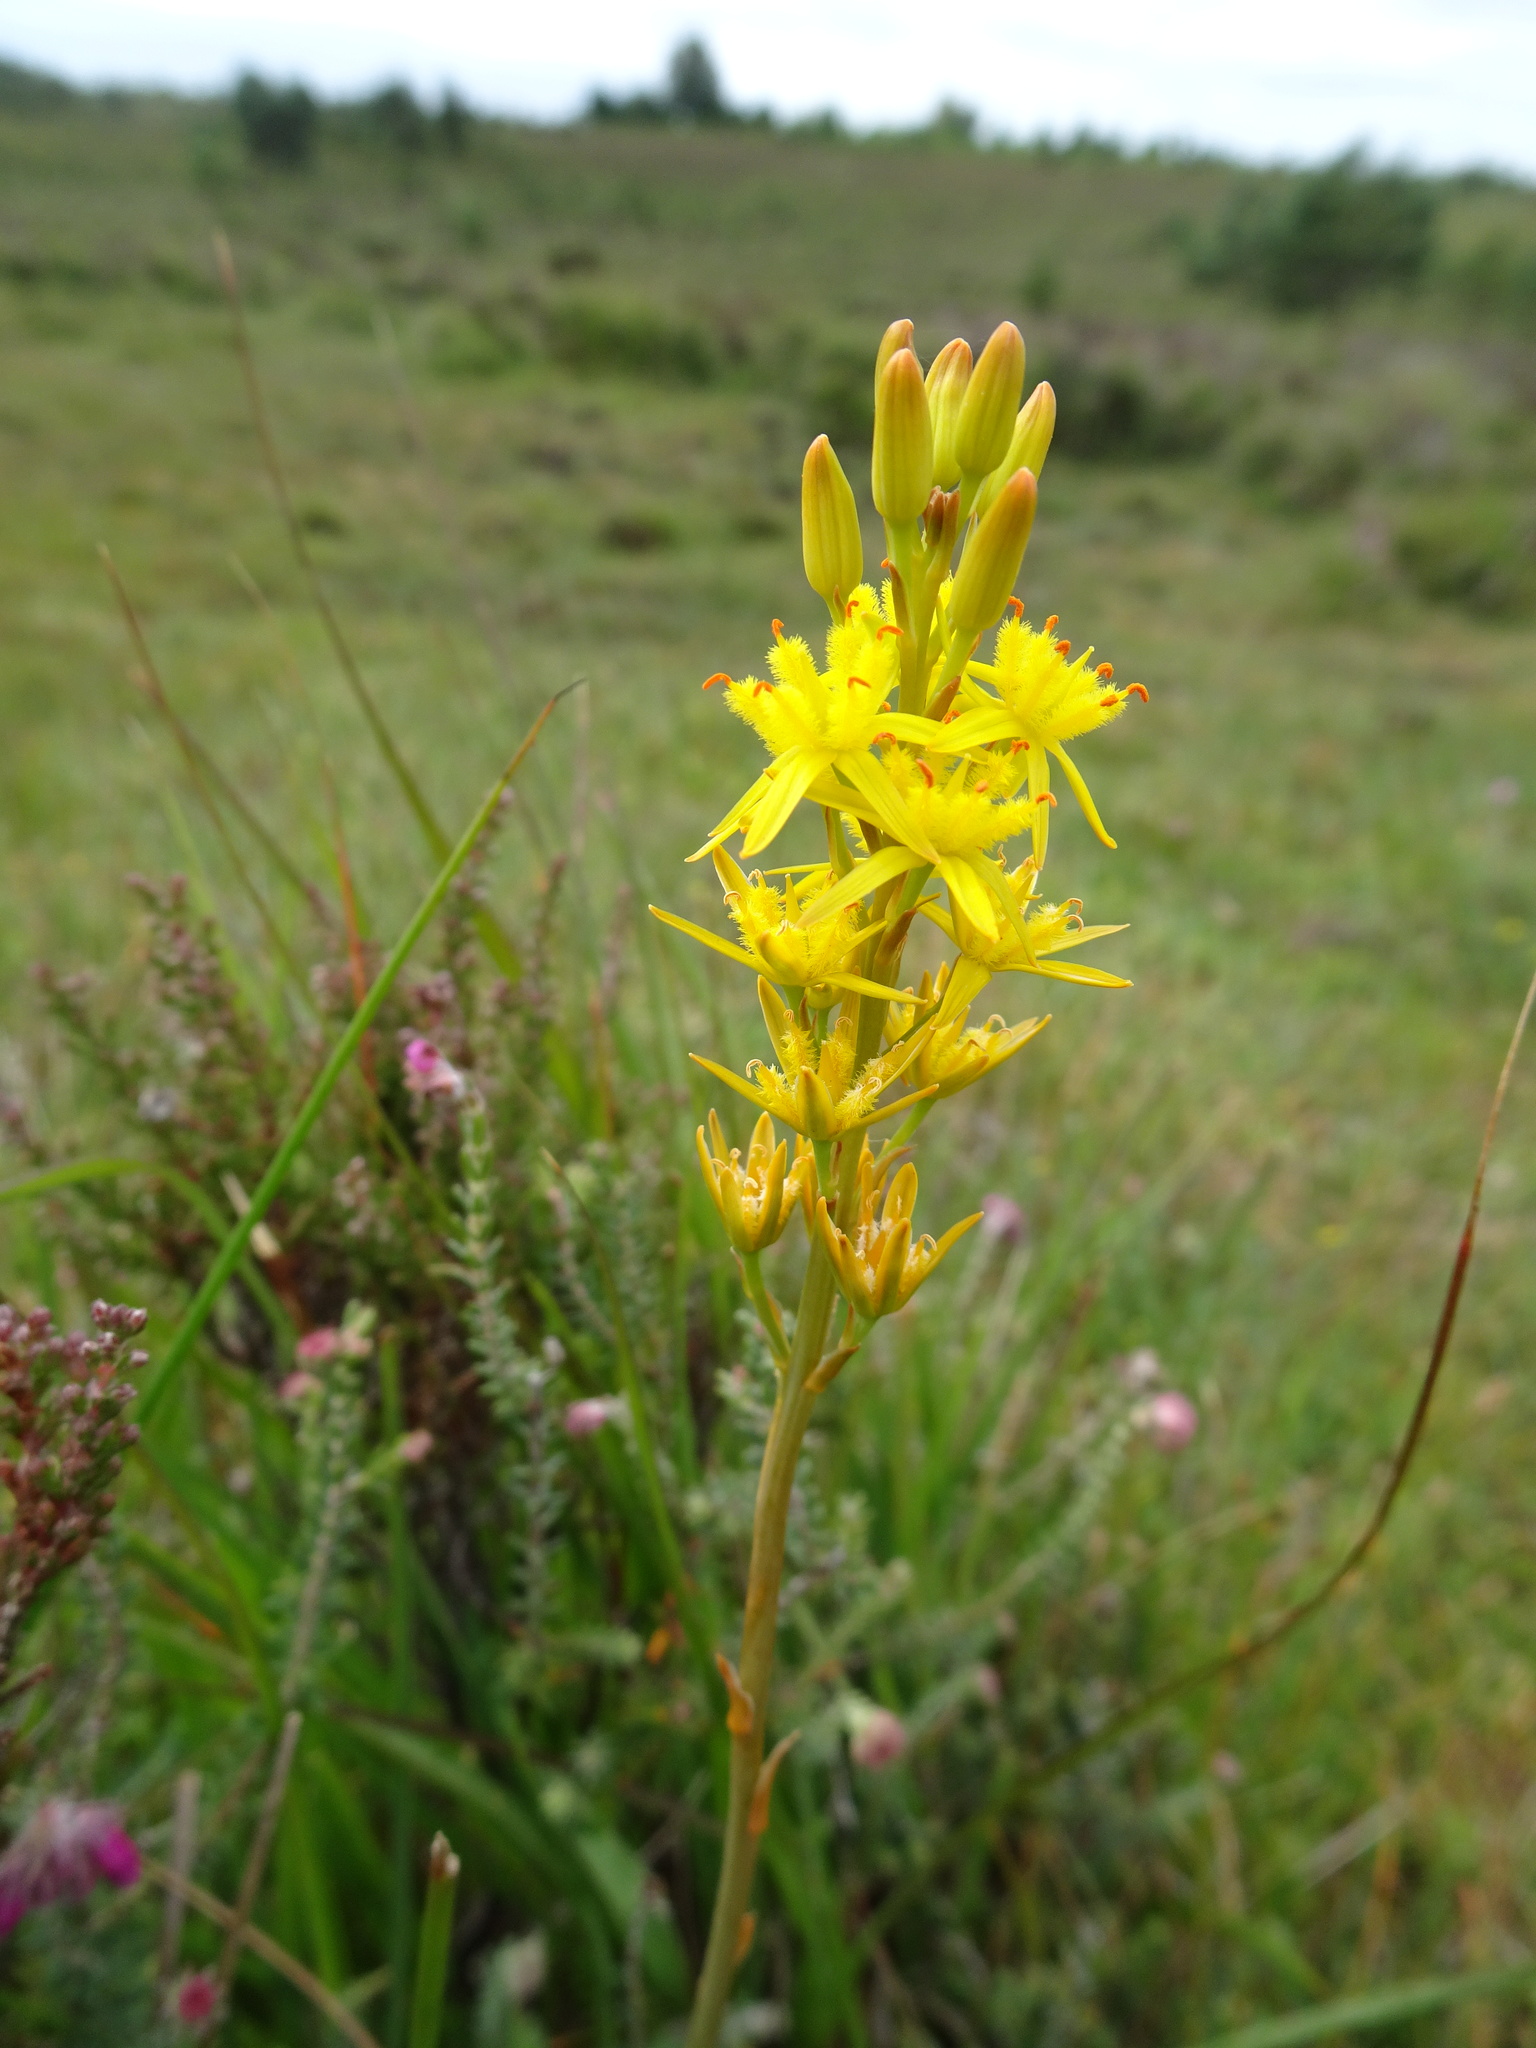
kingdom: Plantae
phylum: Tracheophyta
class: Liliopsida
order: Dioscoreales
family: Nartheciaceae
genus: Narthecium
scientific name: Narthecium ossifragum
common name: Bog asphodel
